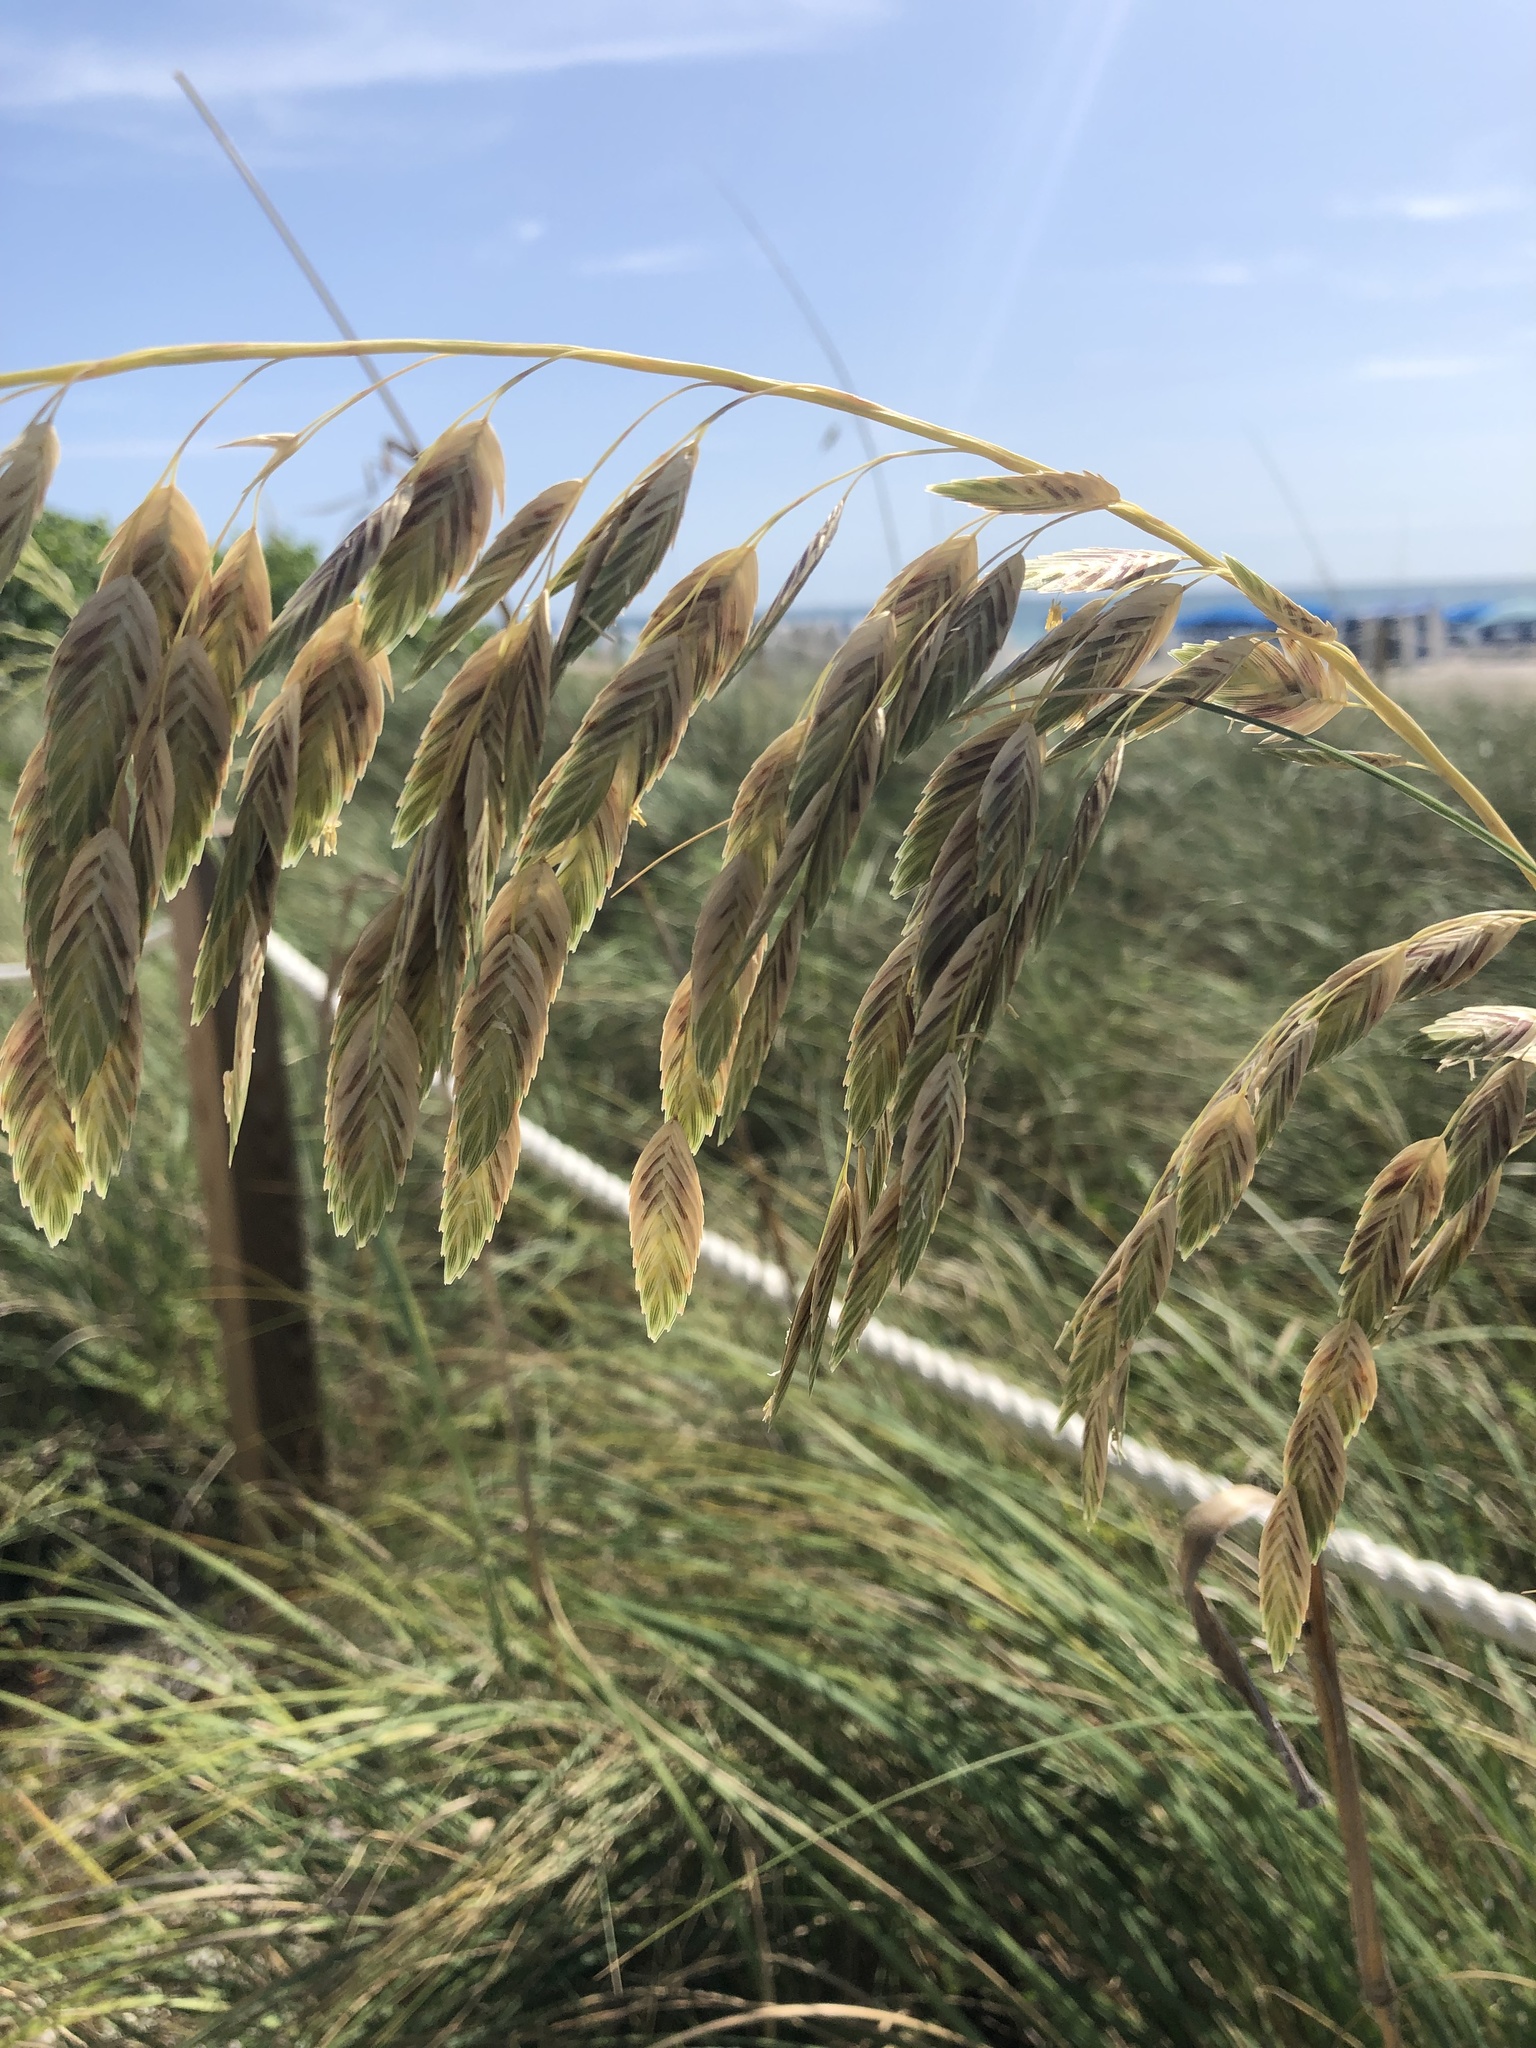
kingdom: Plantae
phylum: Tracheophyta
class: Liliopsida
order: Poales
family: Poaceae
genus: Uniola
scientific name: Uniola paniculata
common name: Seaside-oats
